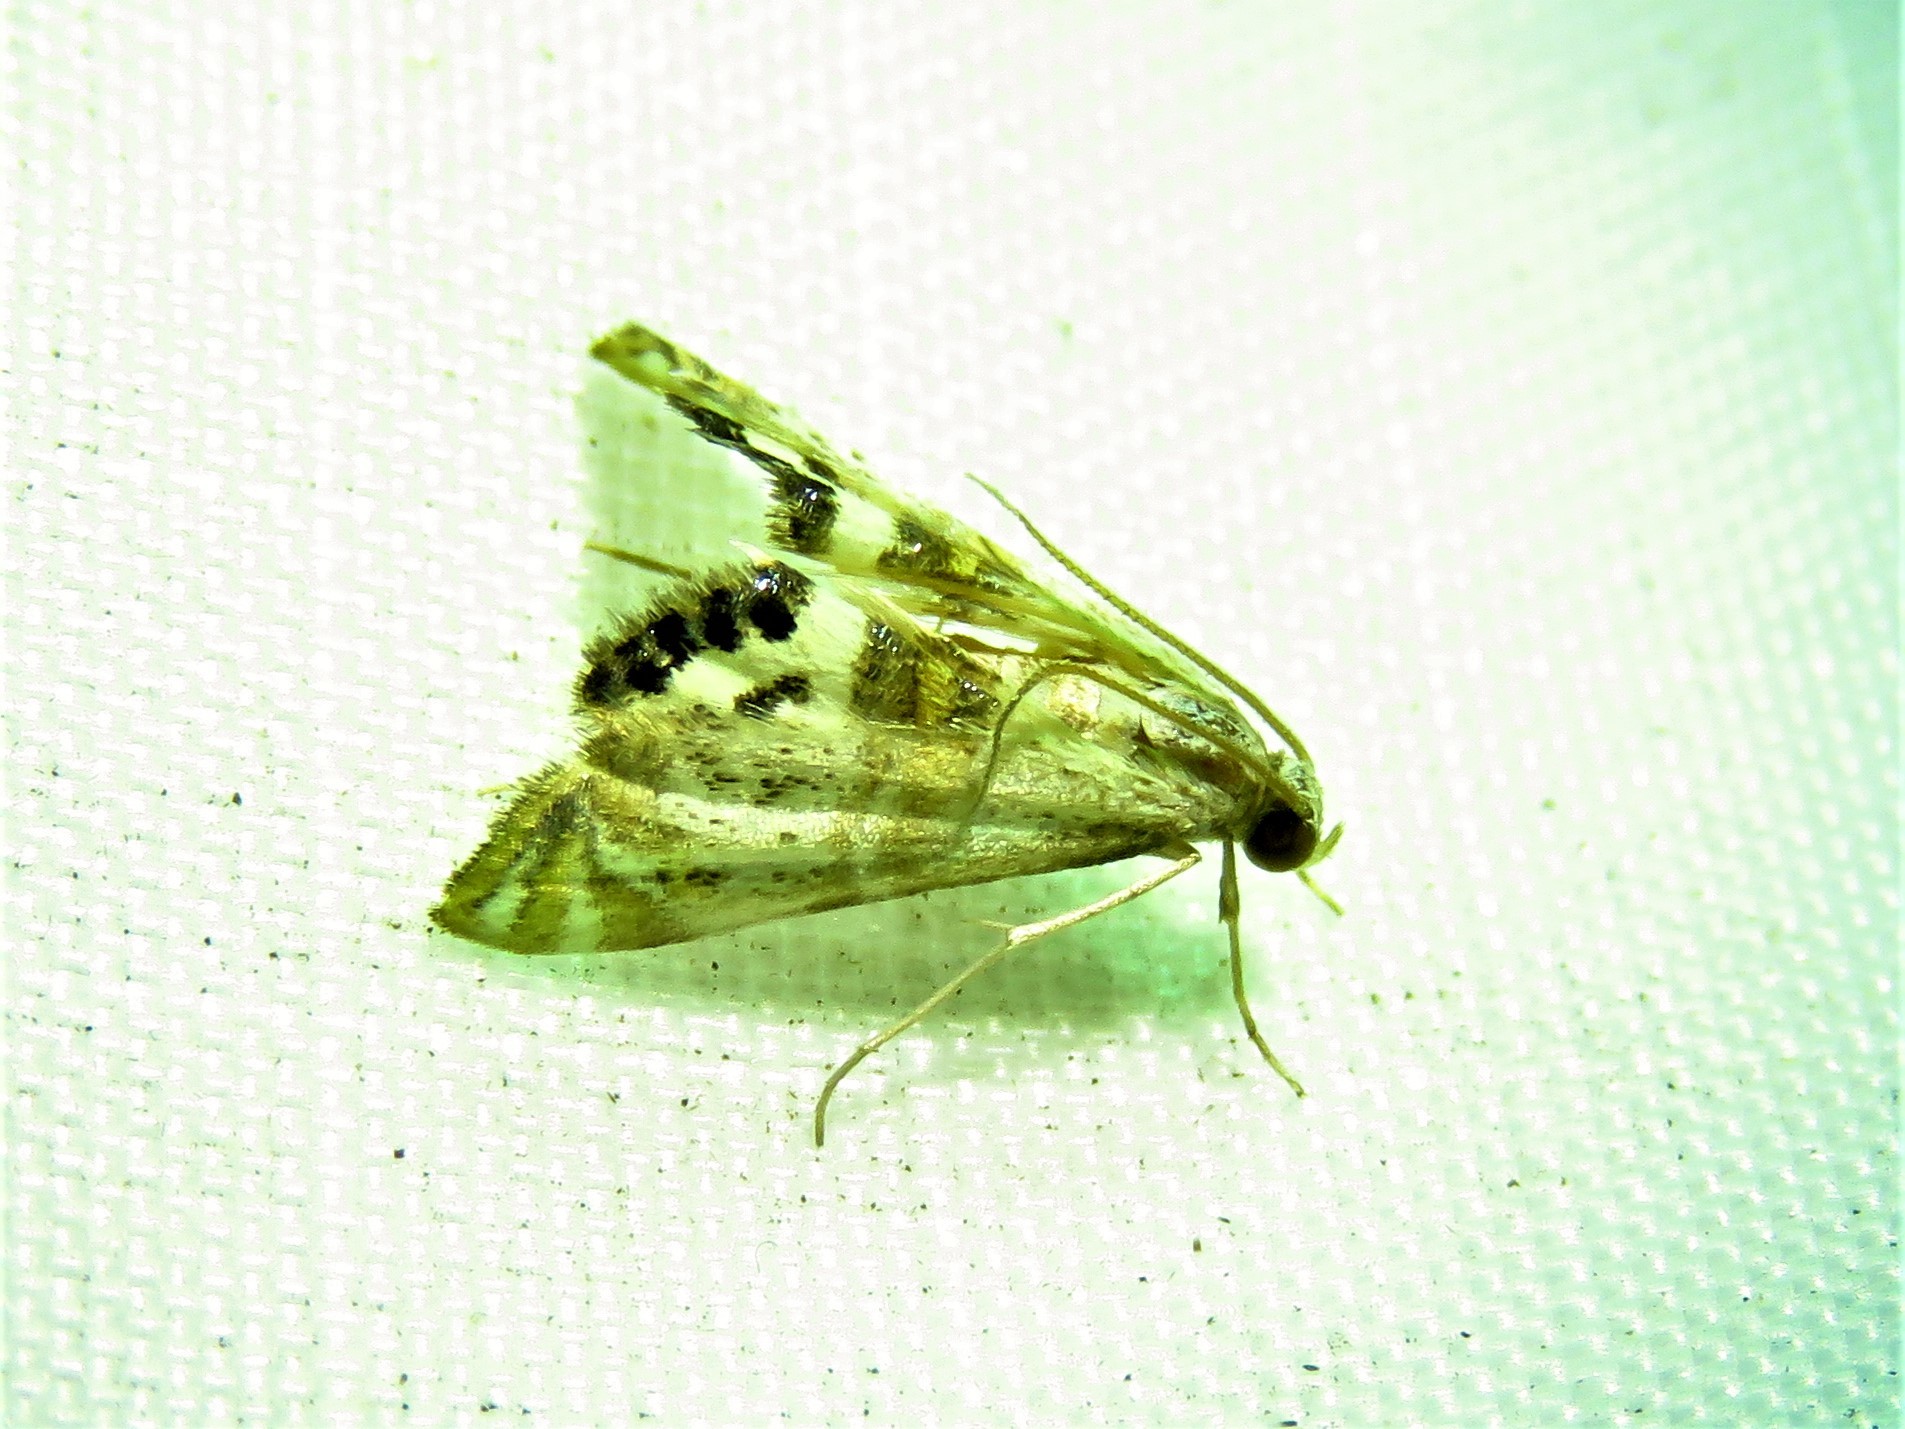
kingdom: Animalia
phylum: Arthropoda
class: Insecta
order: Lepidoptera
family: Crambidae
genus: Petrophila
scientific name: Petrophila bifascialis
